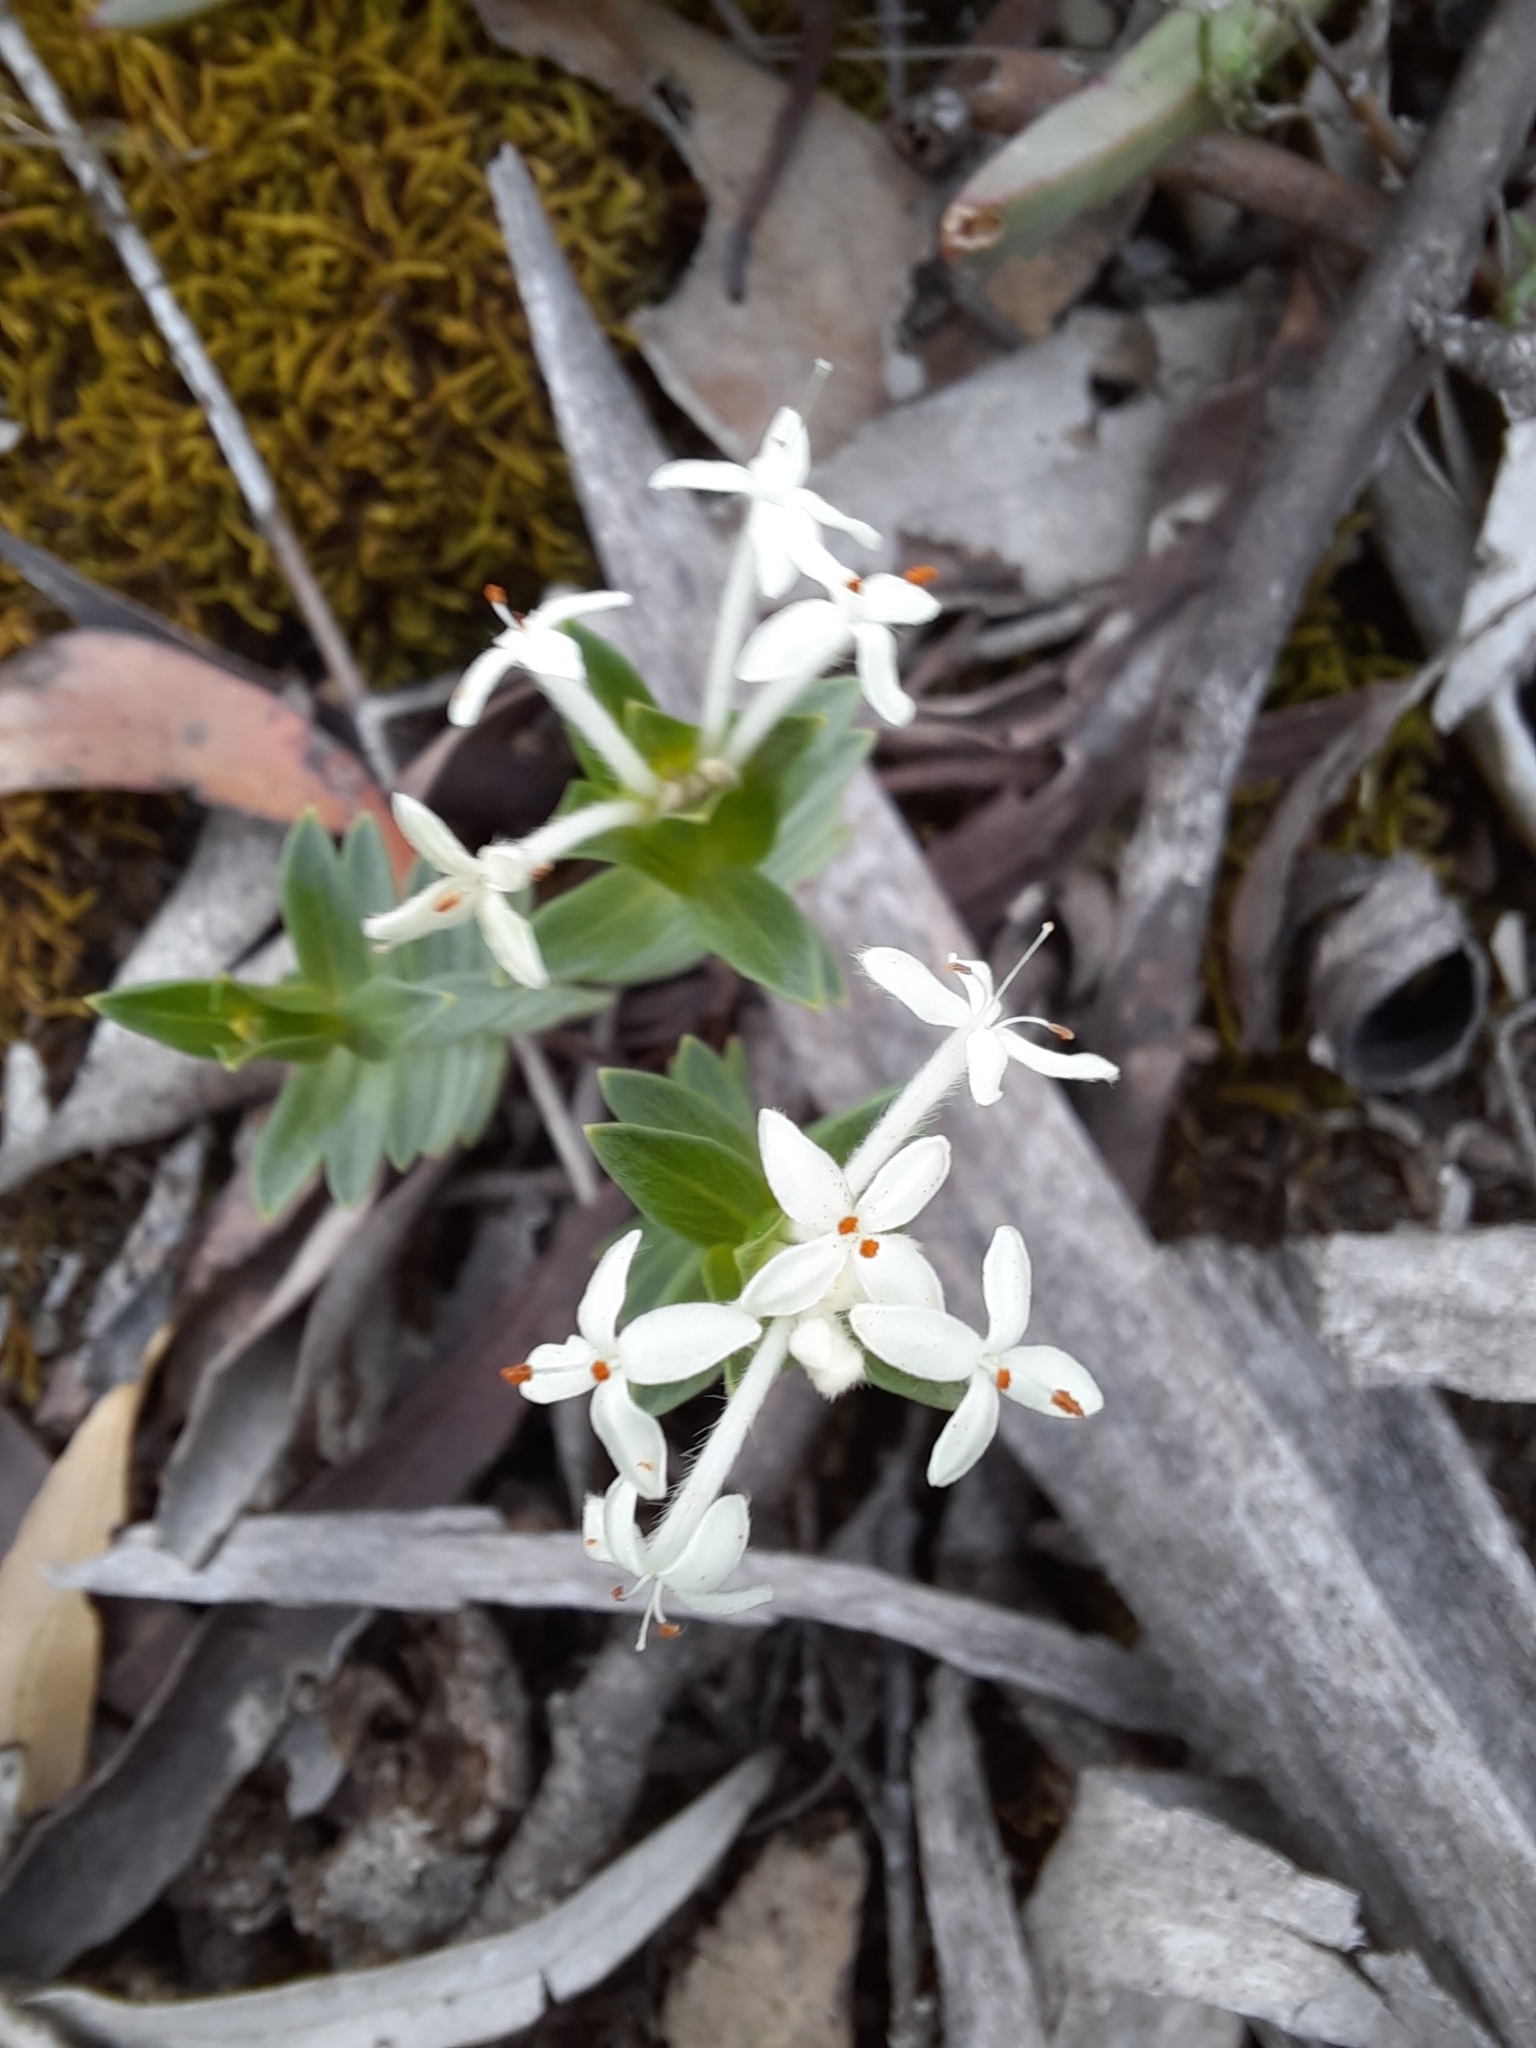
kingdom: Plantae
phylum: Tracheophyta
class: Magnoliopsida
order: Malvales
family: Thymelaeaceae
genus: Pimelea
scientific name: Pimelea linifolia
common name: Queen-of-the-bush
